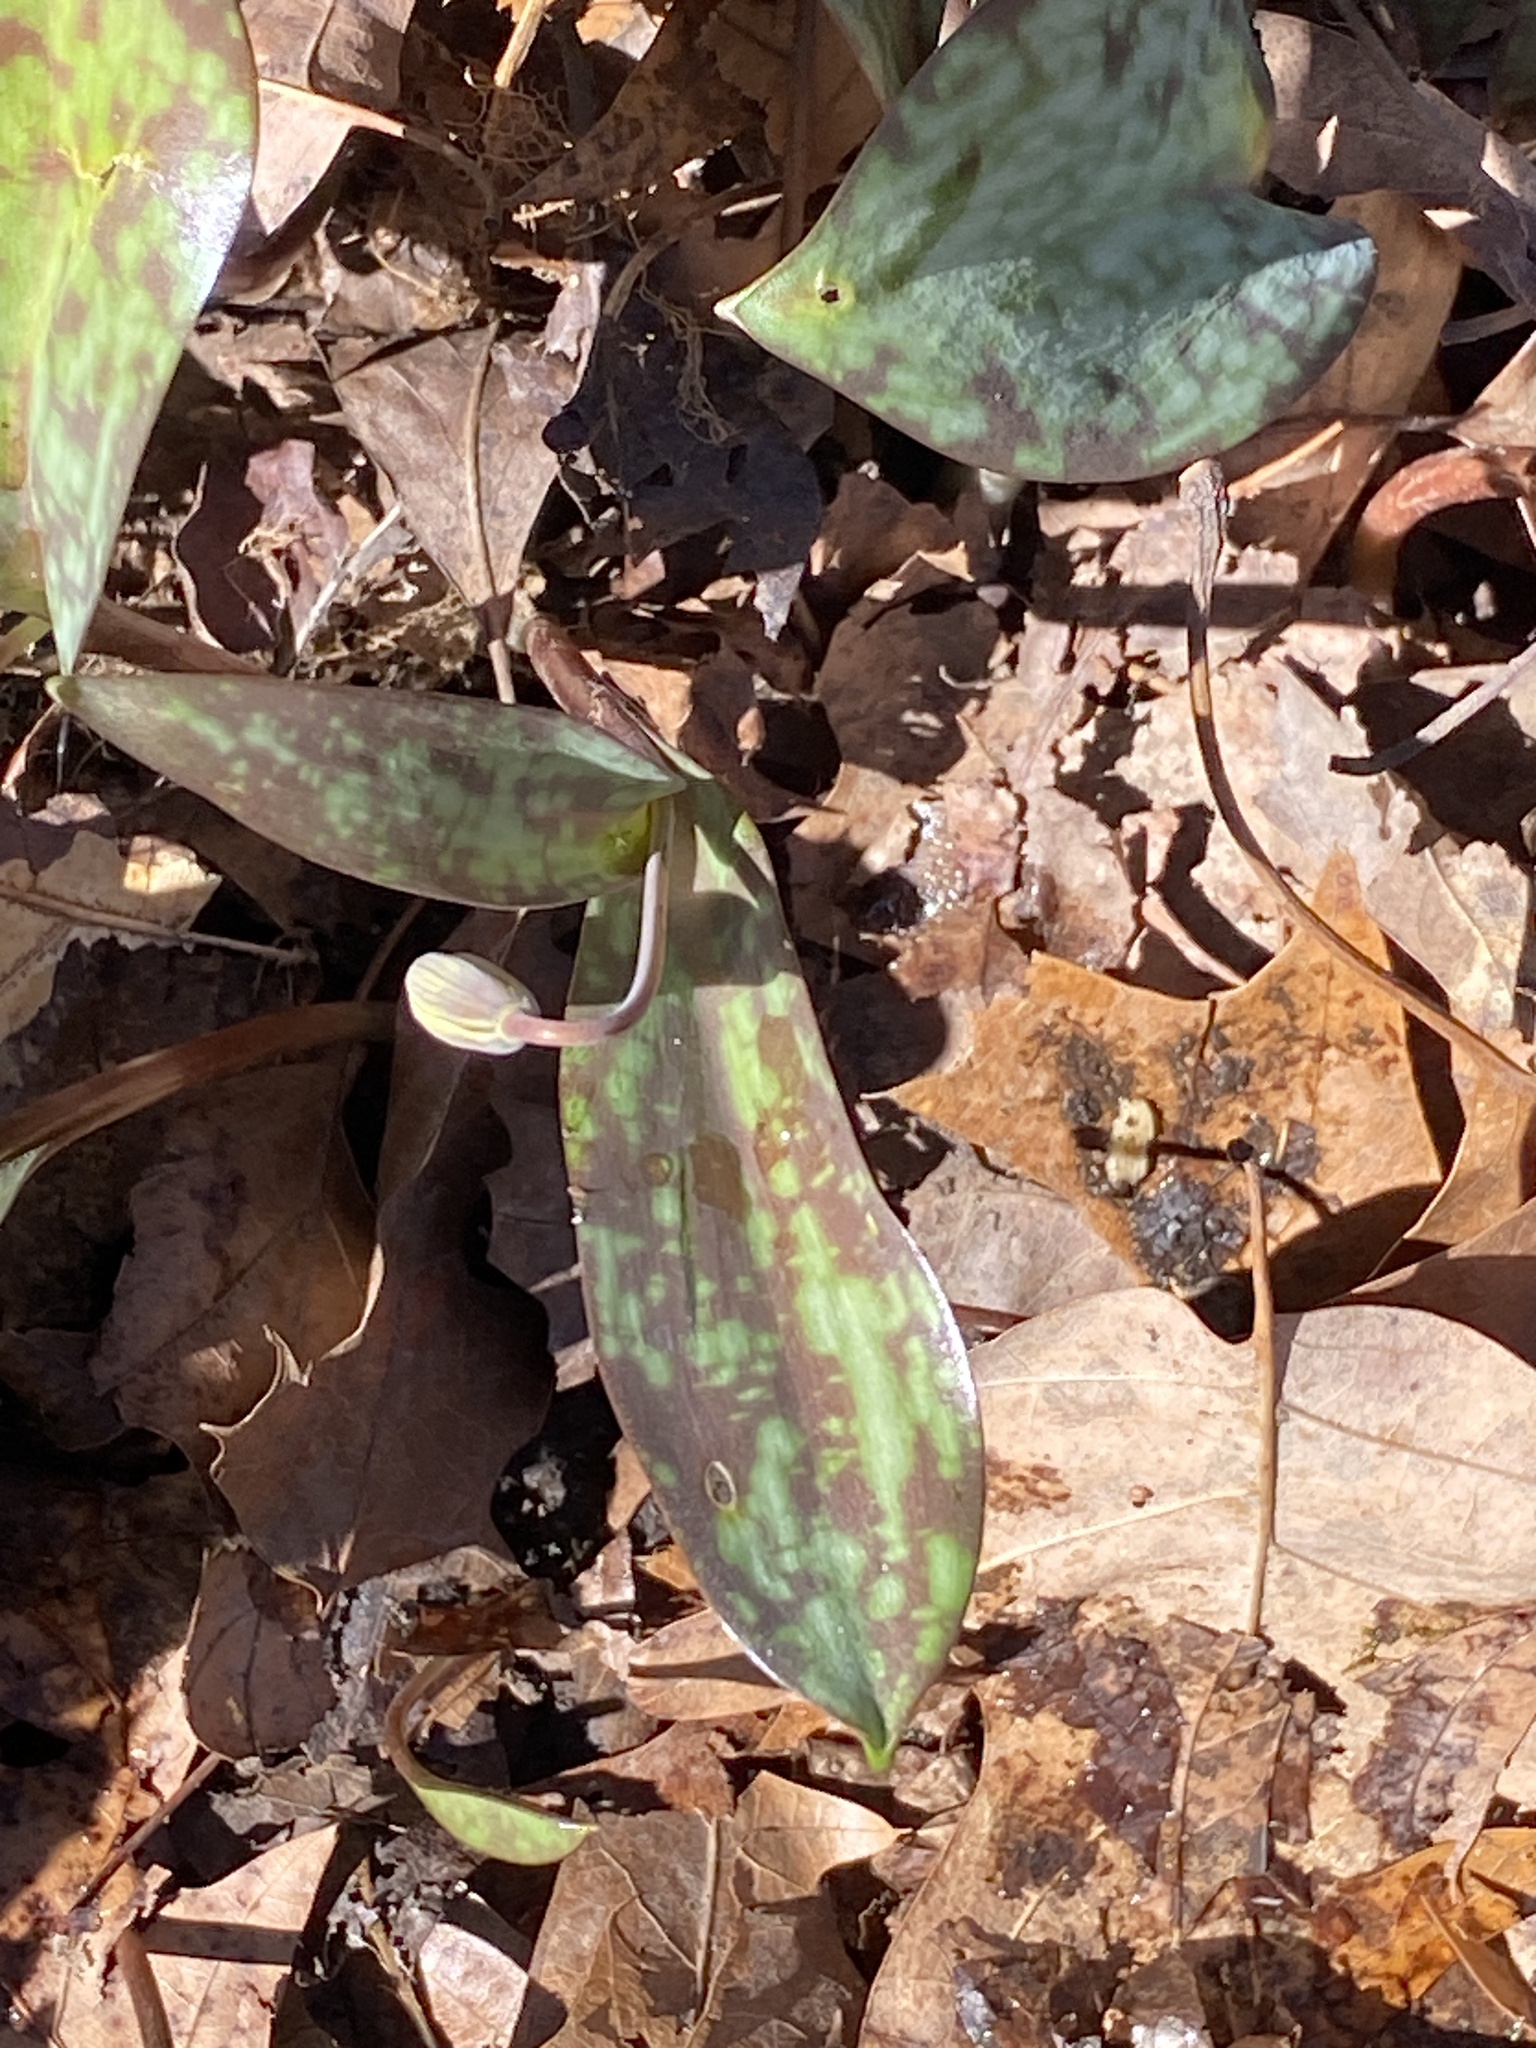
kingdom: Plantae
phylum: Tracheophyta
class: Liliopsida
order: Liliales
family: Liliaceae
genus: Erythronium
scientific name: Erythronium americanum
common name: Yellow adder's-tongue
